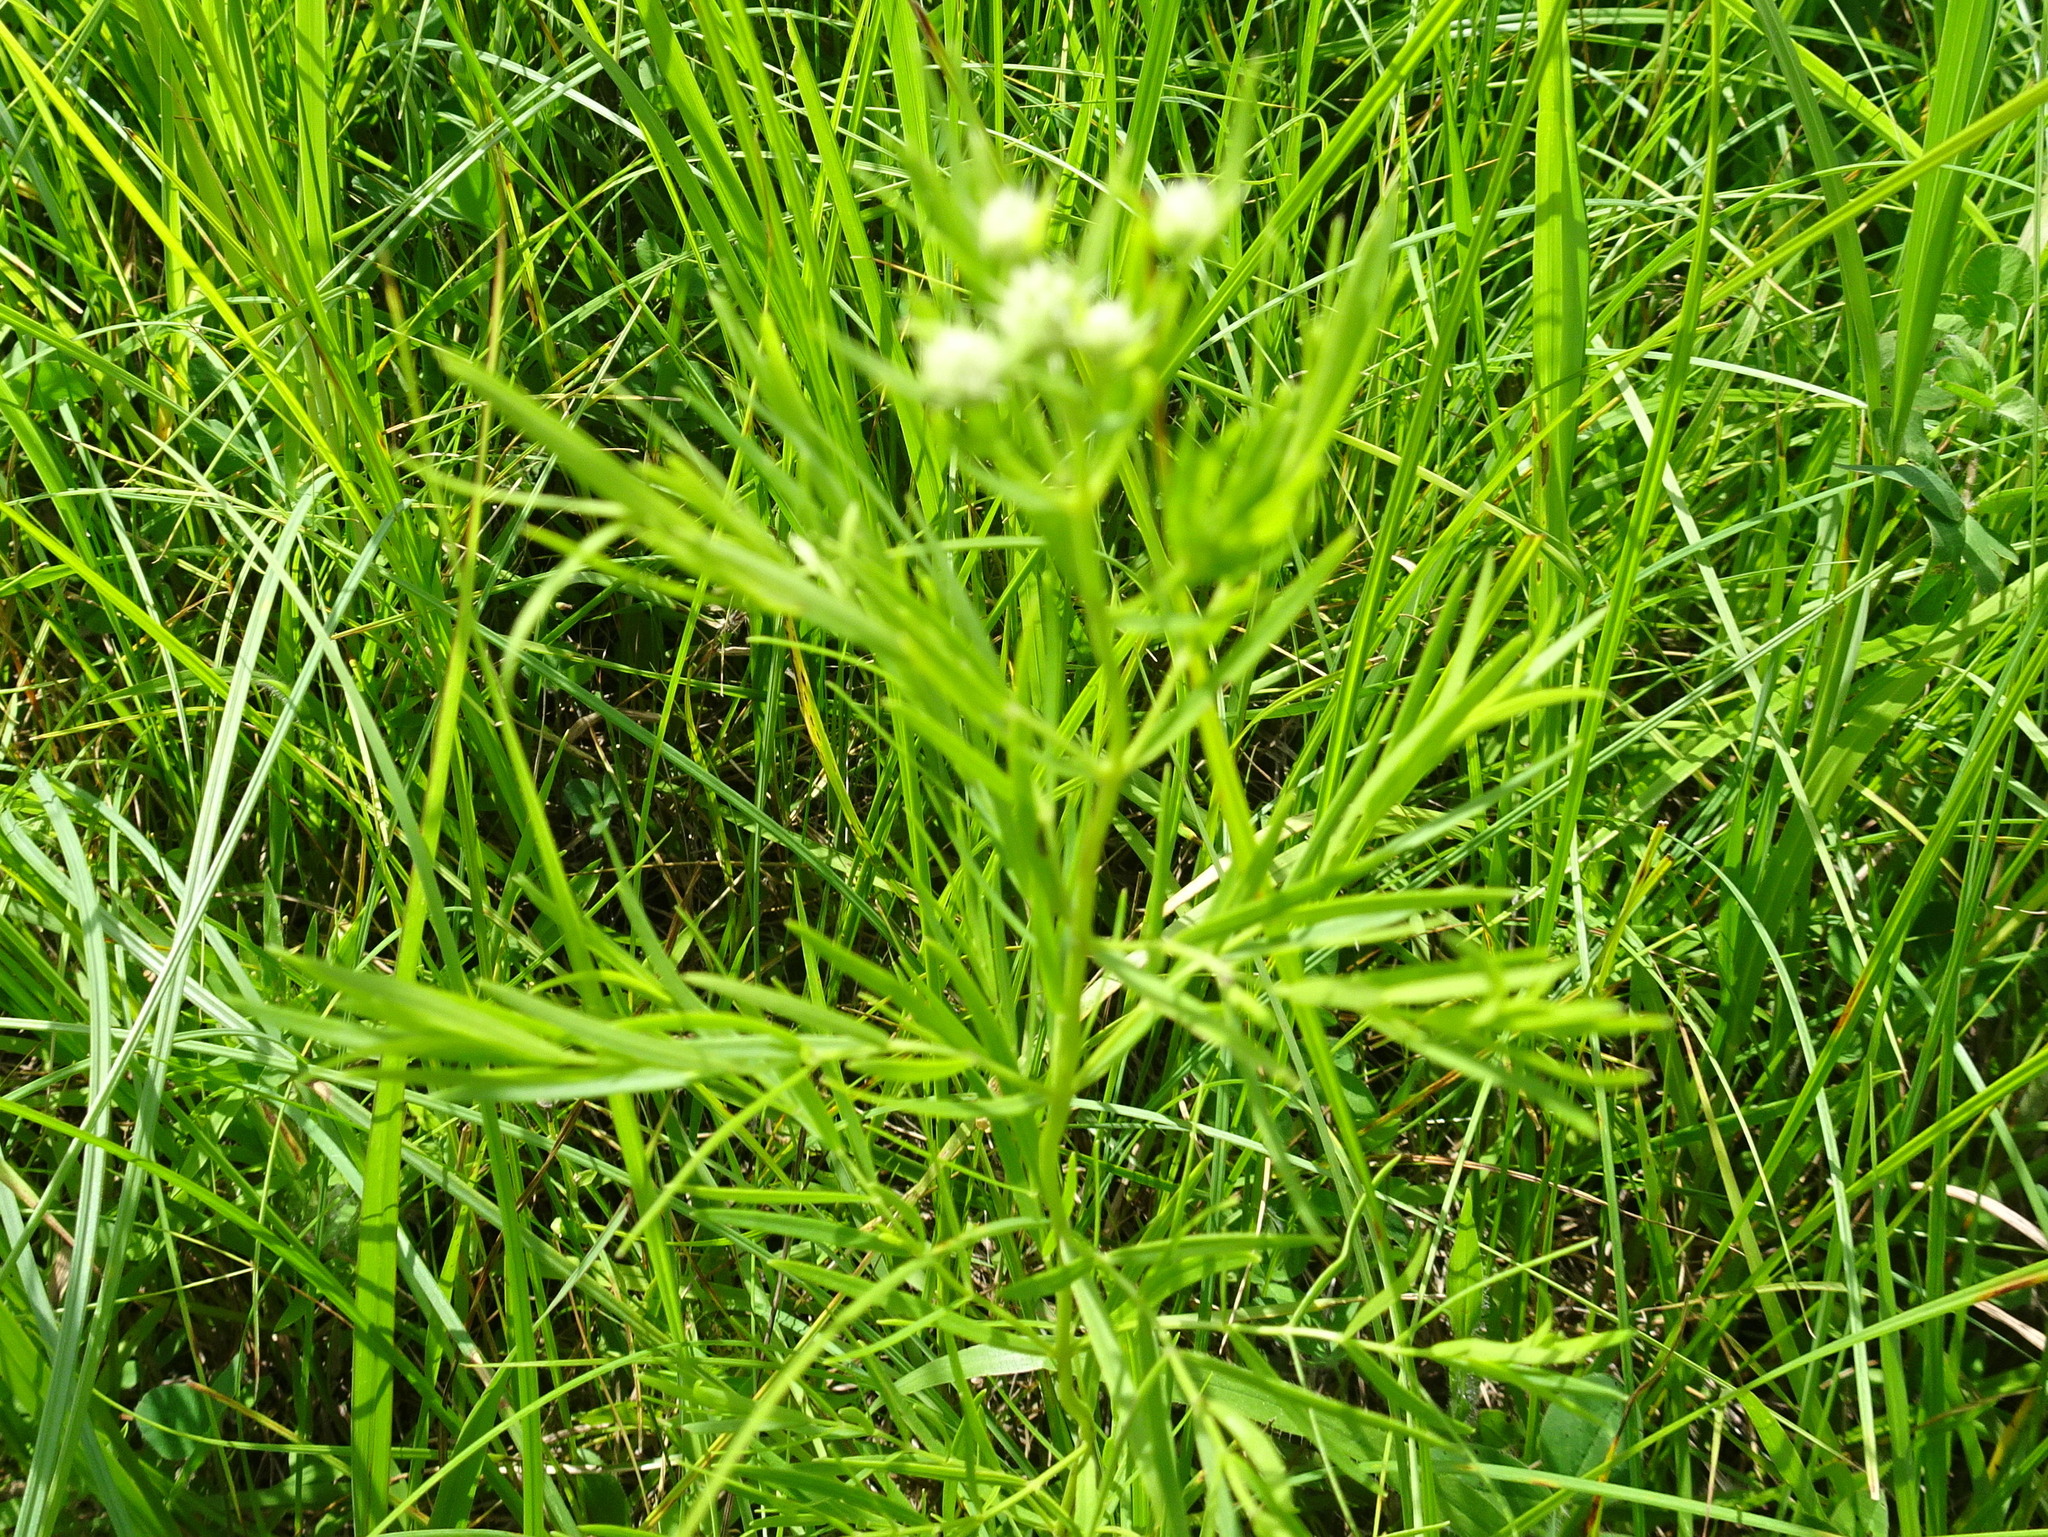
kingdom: Plantae
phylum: Tracheophyta
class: Magnoliopsida
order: Lamiales
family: Lamiaceae
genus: Pycnanthemum
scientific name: Pycnanthemum tenuifolium
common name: Narrow-leaf mountain-mint
